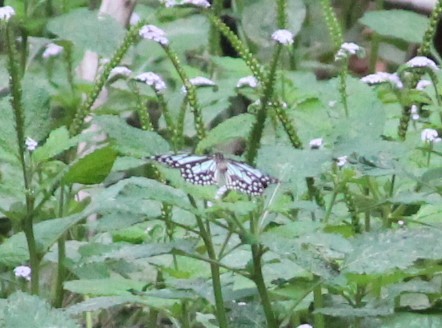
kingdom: Animalia
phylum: Arthropoda
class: Insecta
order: Lepidoptera
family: Nymphalidae
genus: Tirumala
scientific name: Tirumala limniace
